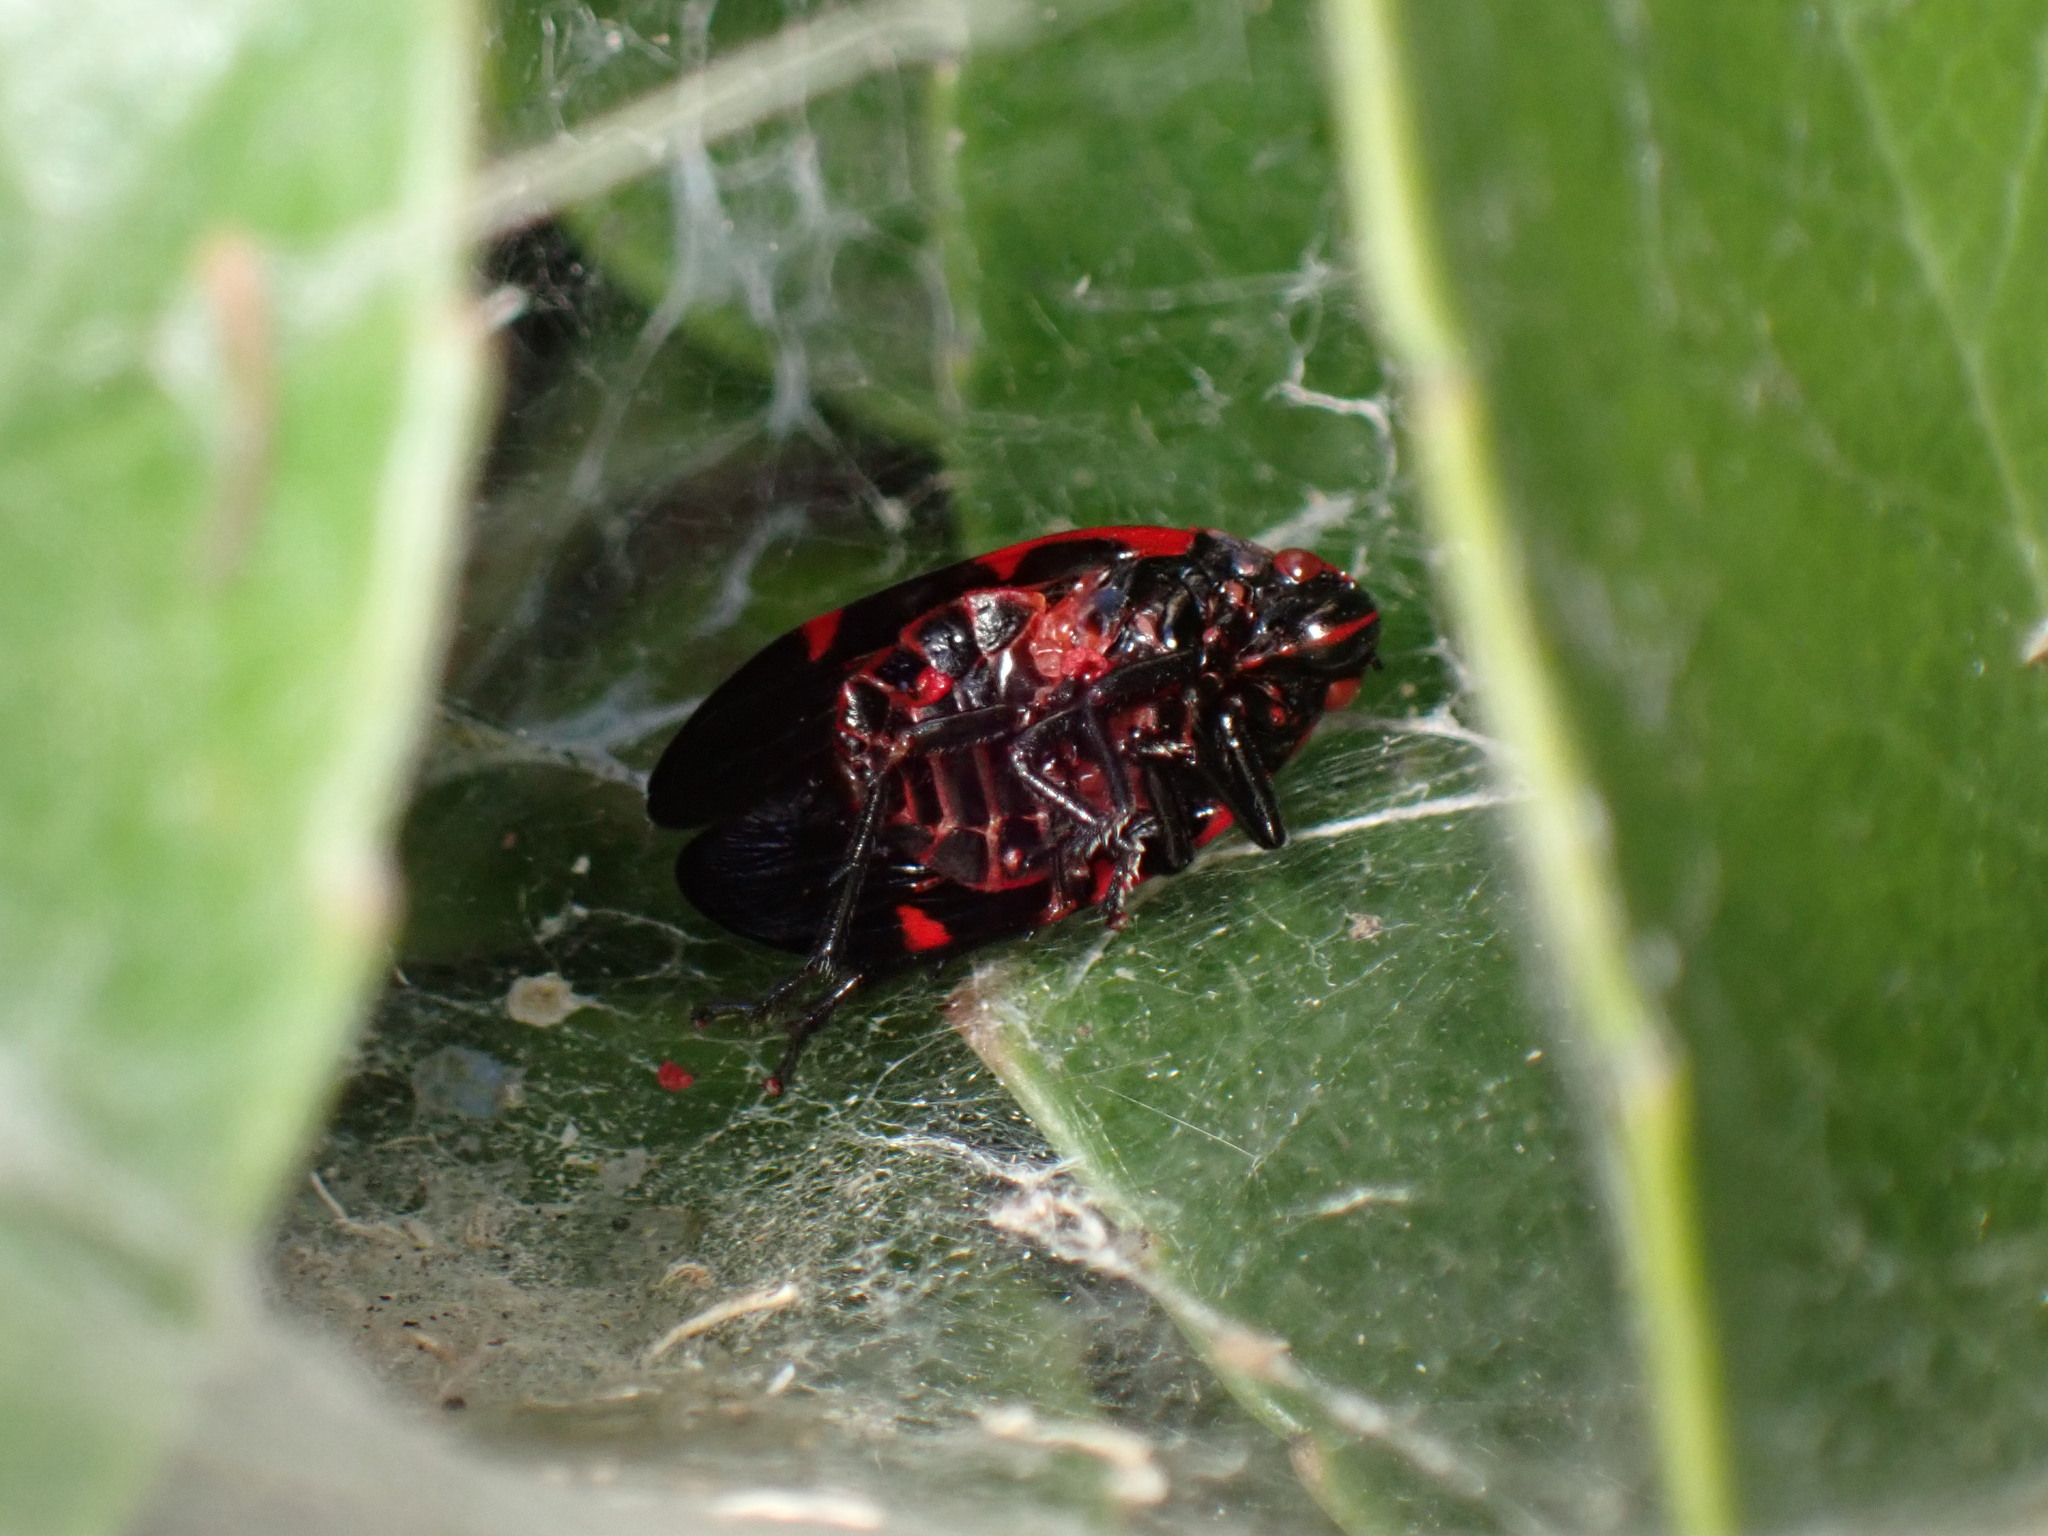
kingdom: Animalia
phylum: Arthropoda
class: Insecta
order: Hemiptera
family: Cercopidae
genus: Prosapia
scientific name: Prosapia
